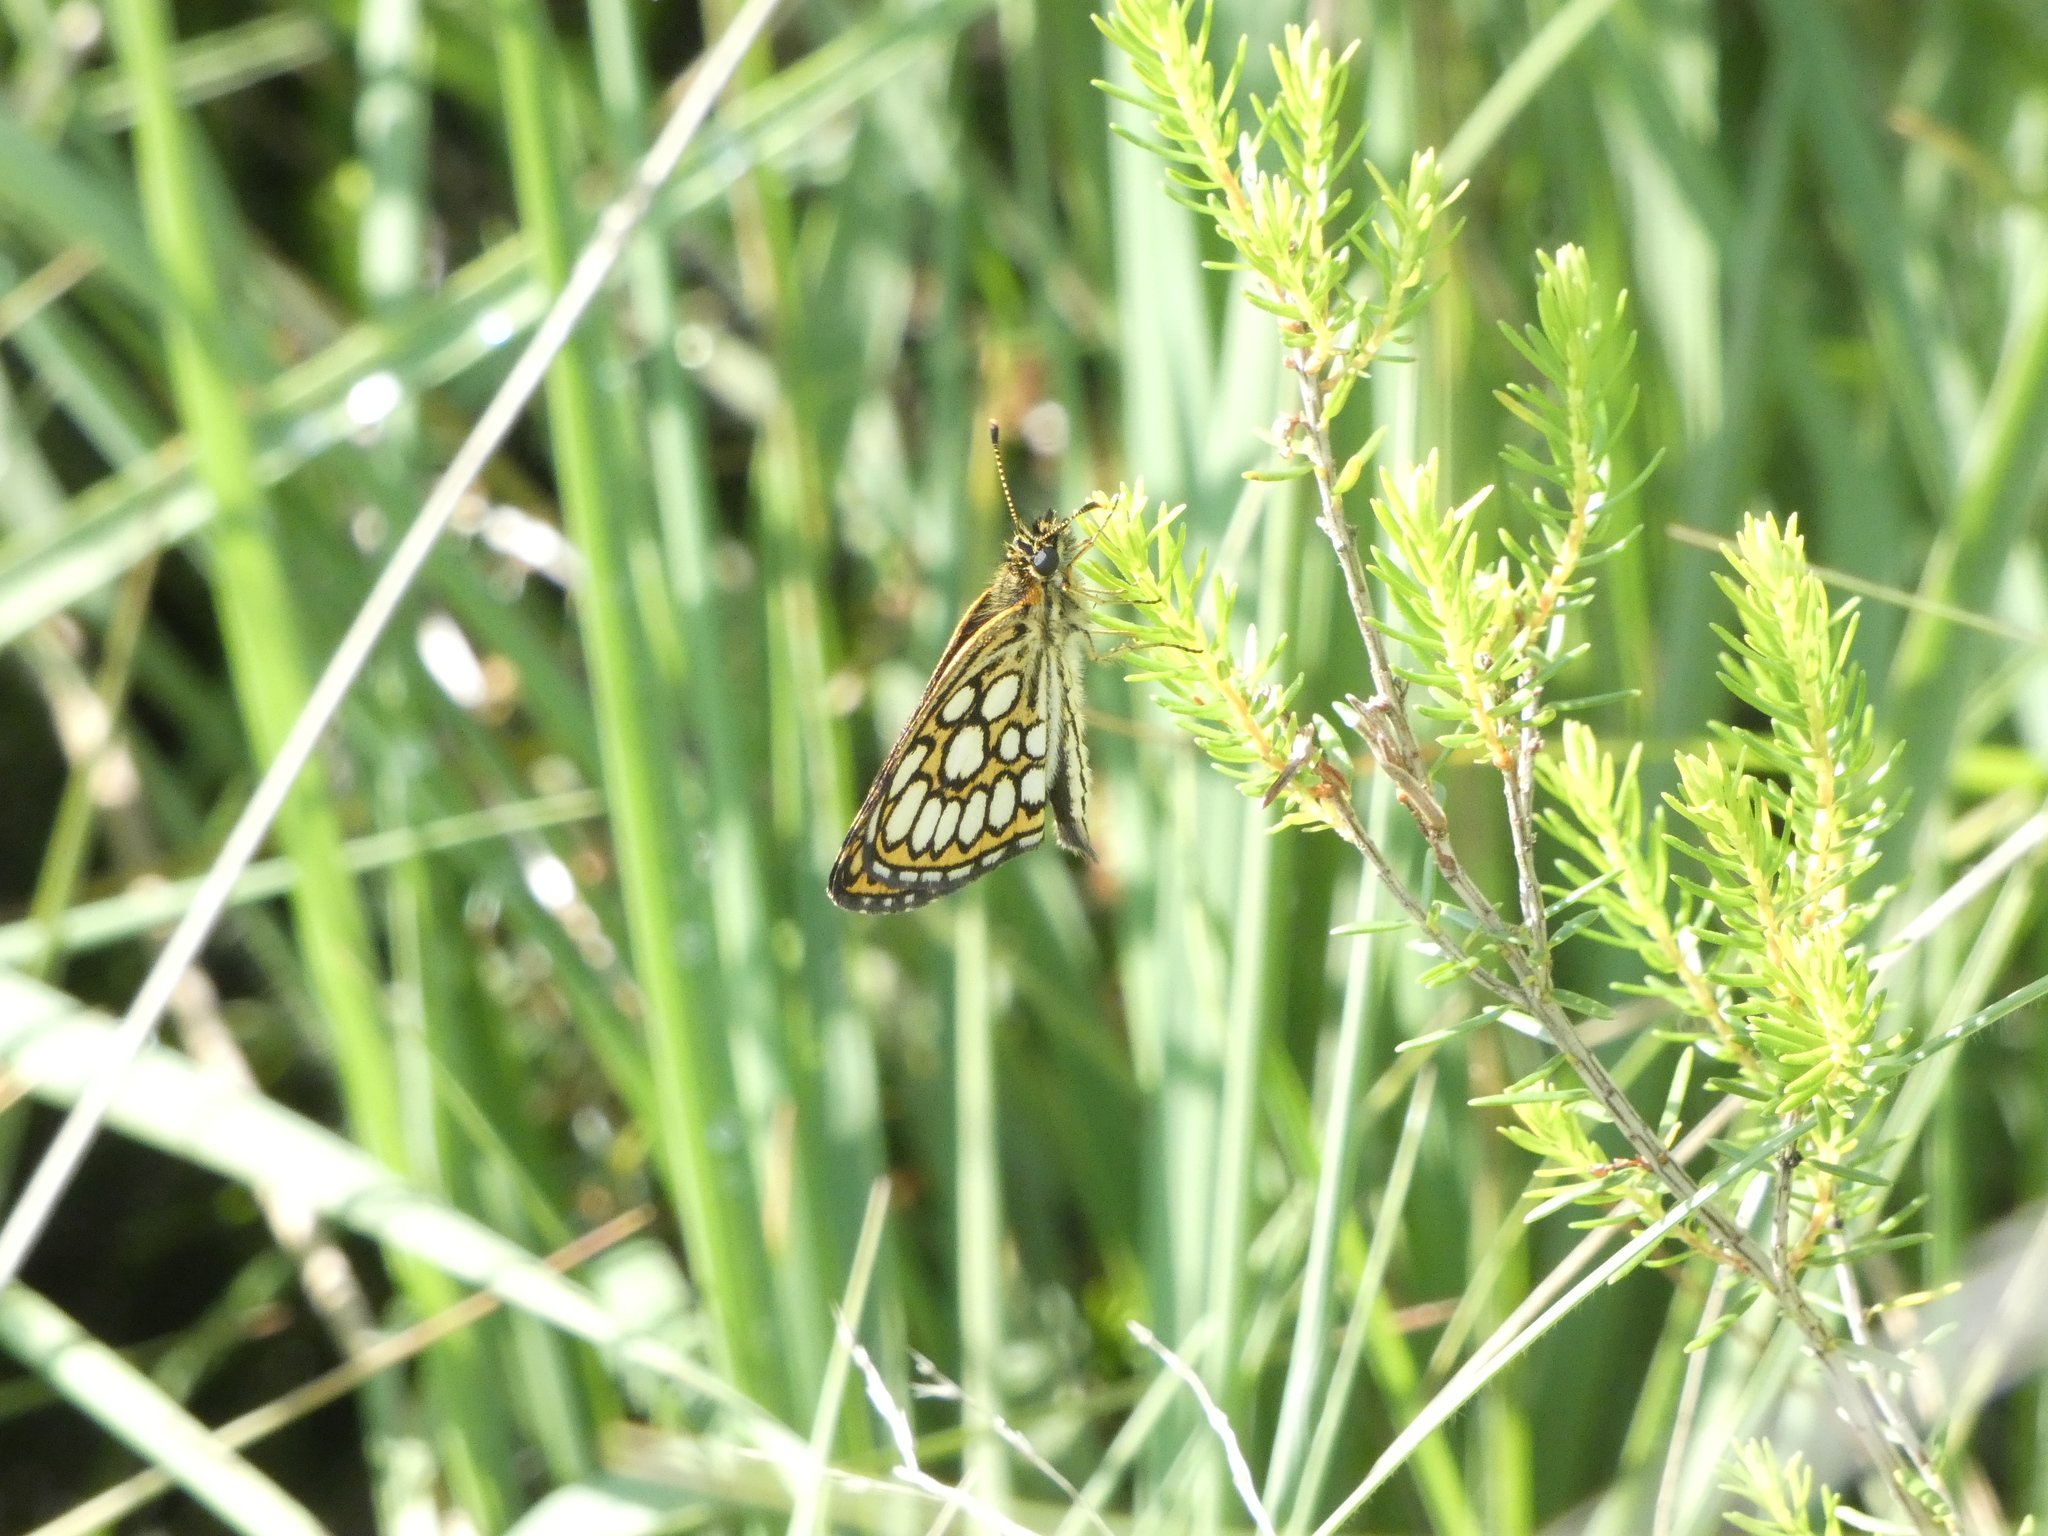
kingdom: Animalia
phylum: Arthropoda
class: Insecta
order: Lepidoptera
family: Hesperiidae
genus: Heteropterus
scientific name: Heteropterus morpheus
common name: Large chequered skipper
